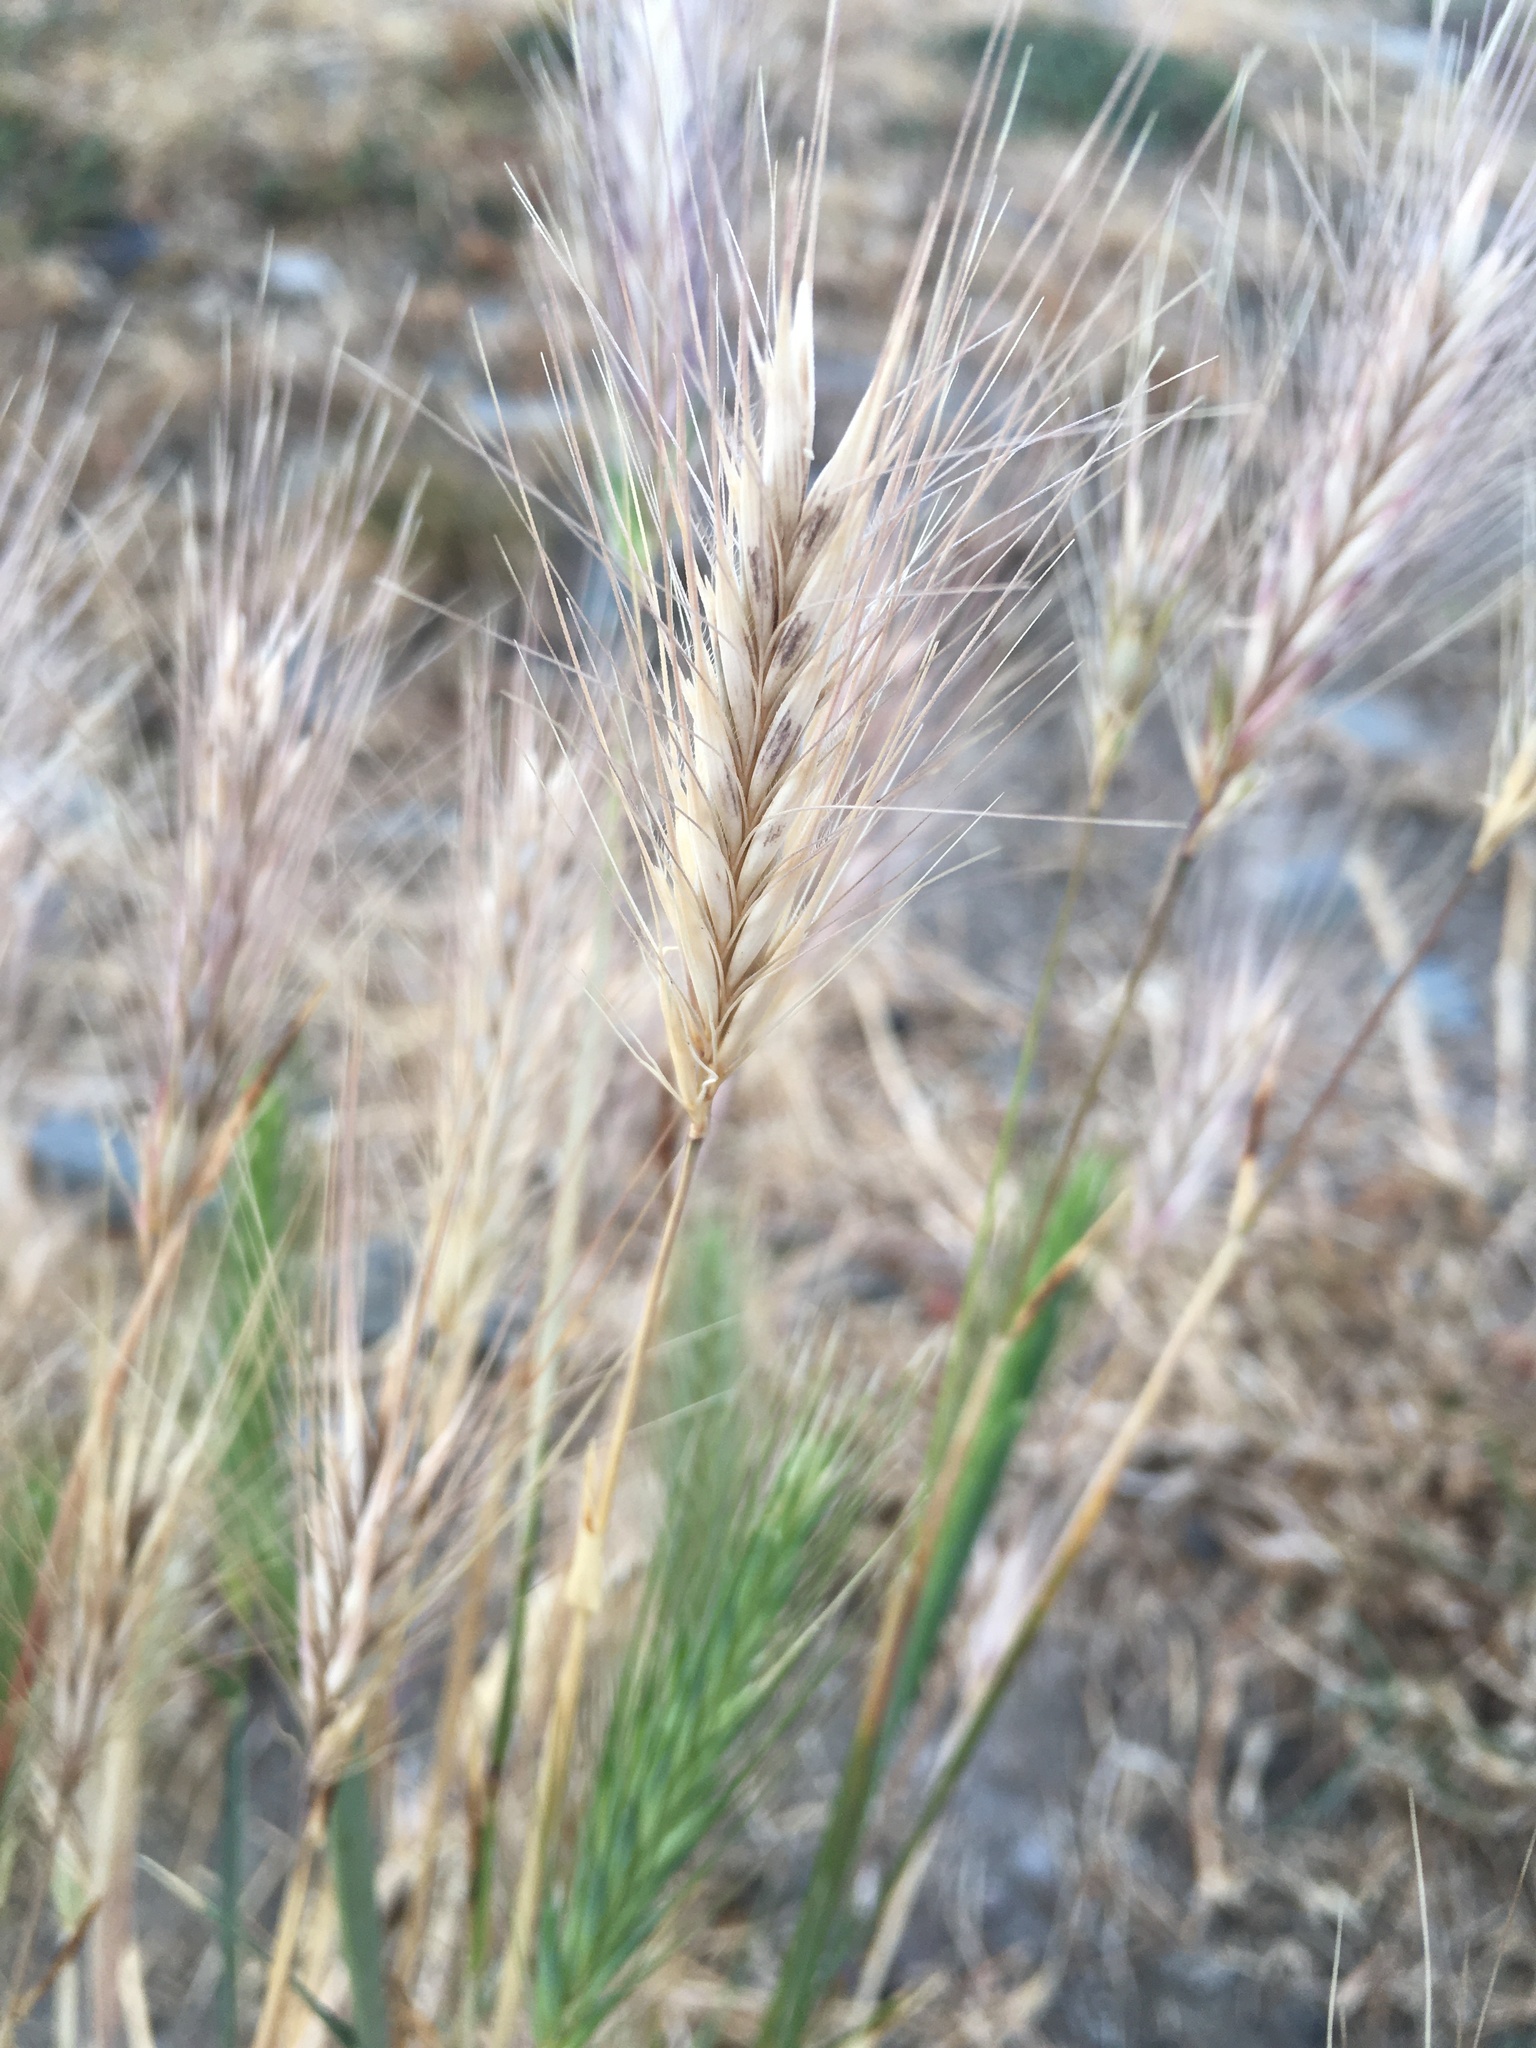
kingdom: Plantae
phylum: Tracheophyta
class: Liliopsida
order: Poales
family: Poaceae
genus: Hordeum
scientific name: Hordeum murinum
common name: Wall barley
